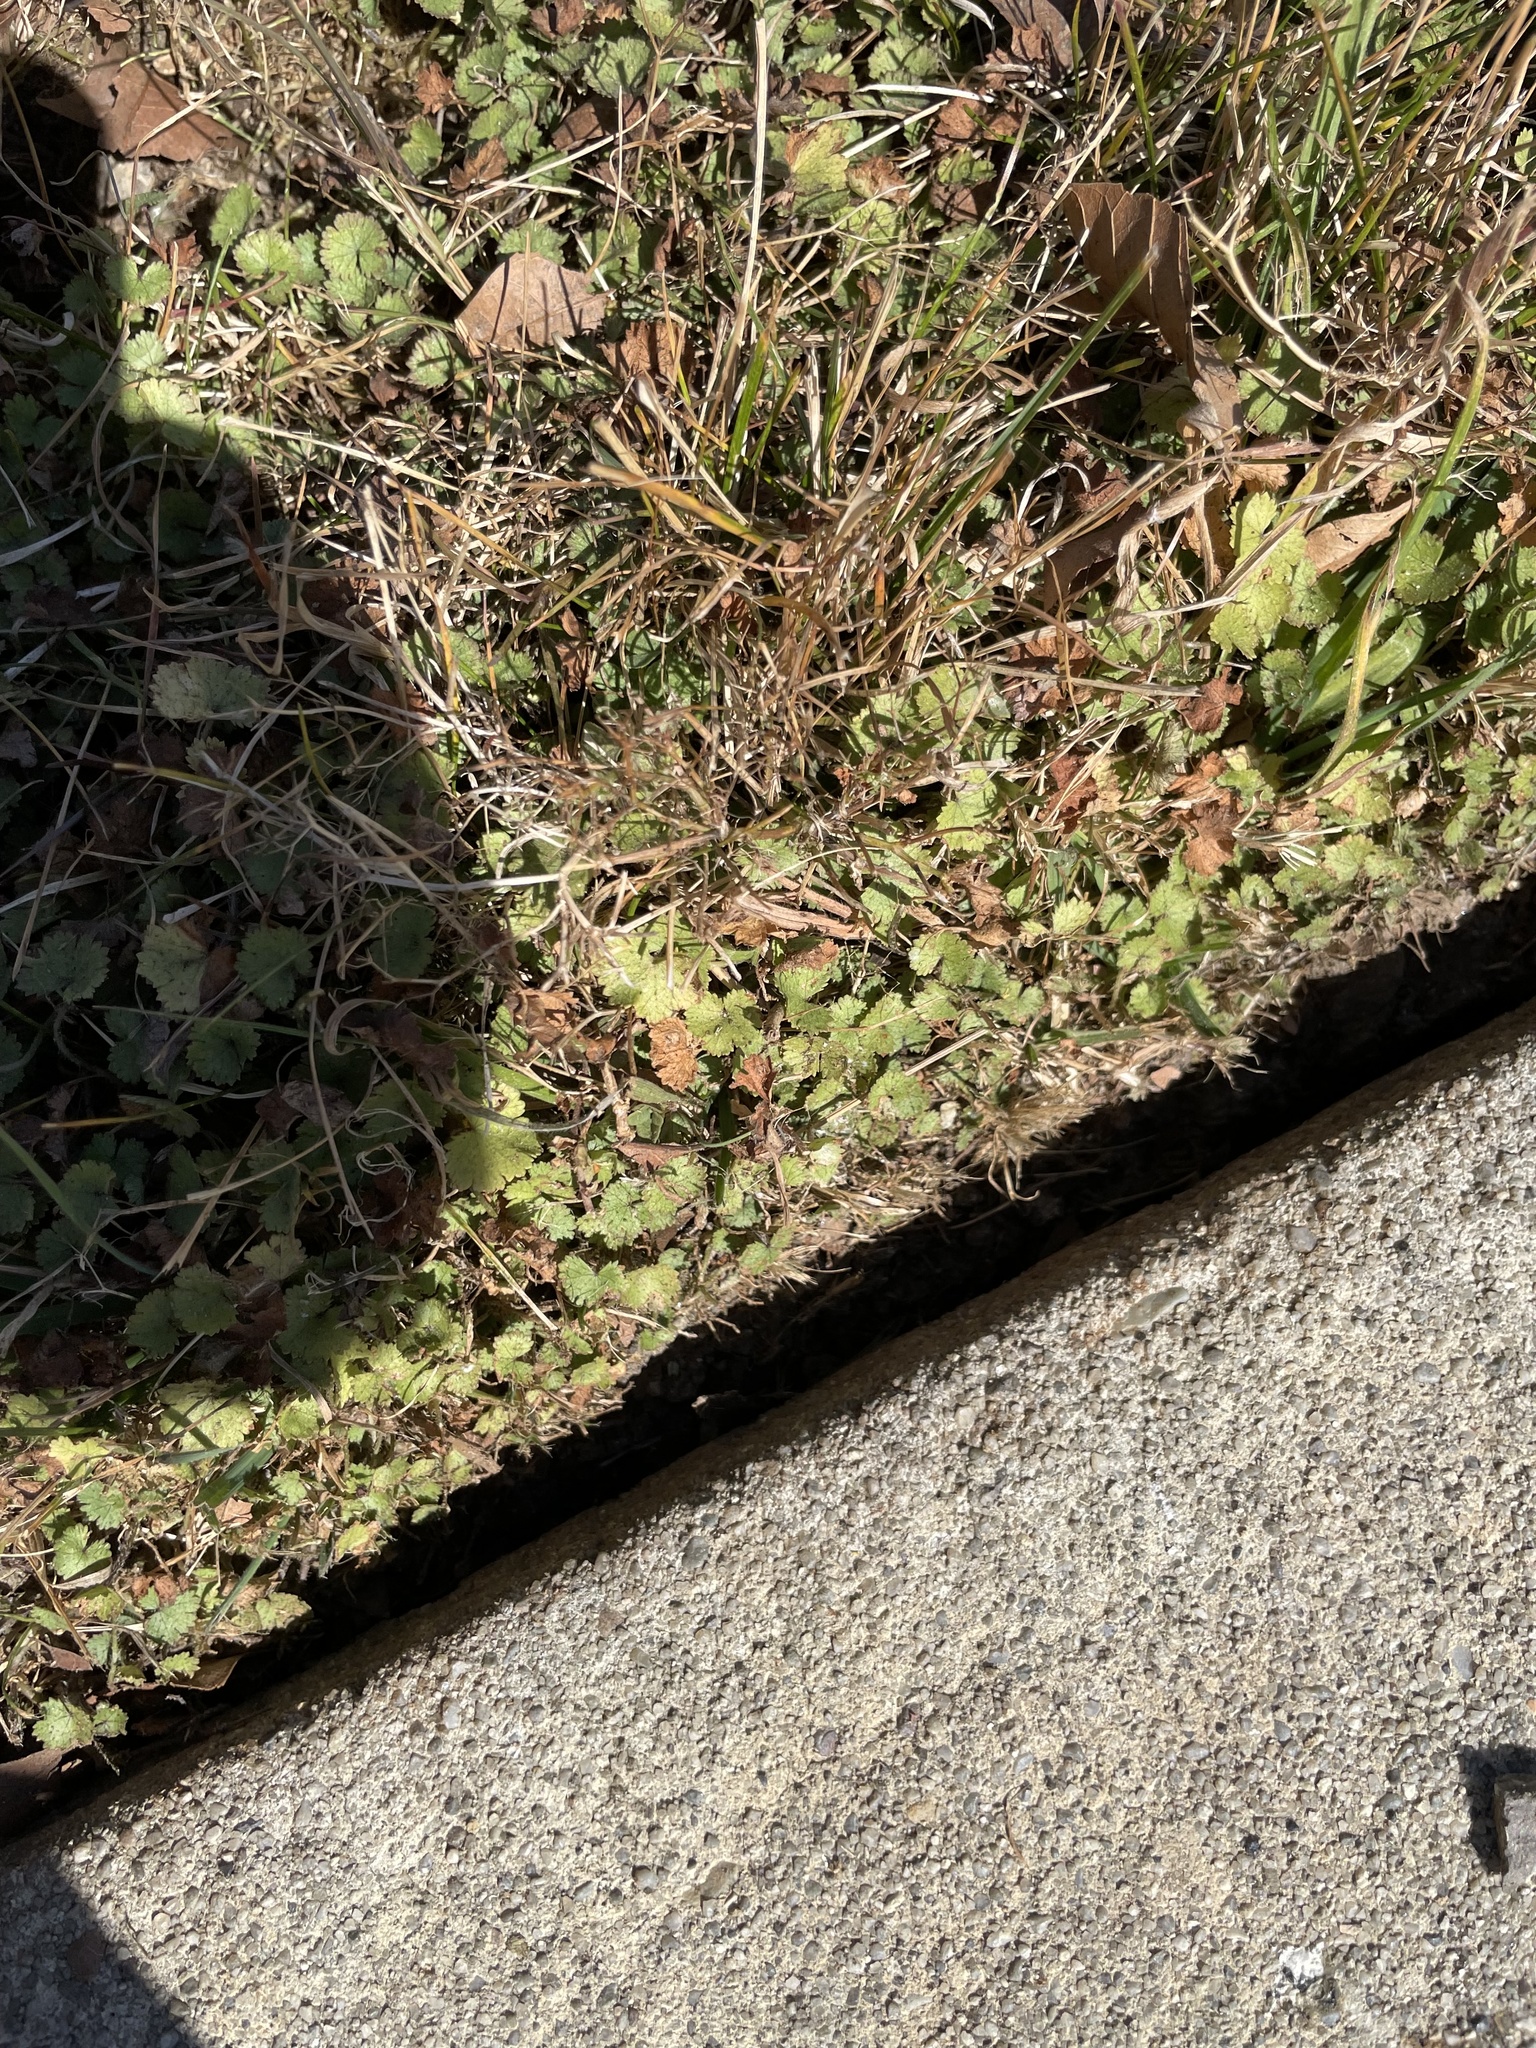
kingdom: Plantae
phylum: Tracheophyta
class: Magnoliopsida
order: Apiales
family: Araliaceae
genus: Hydrocotyle
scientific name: Hydrocotyle moschata
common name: Hairy pennywort
